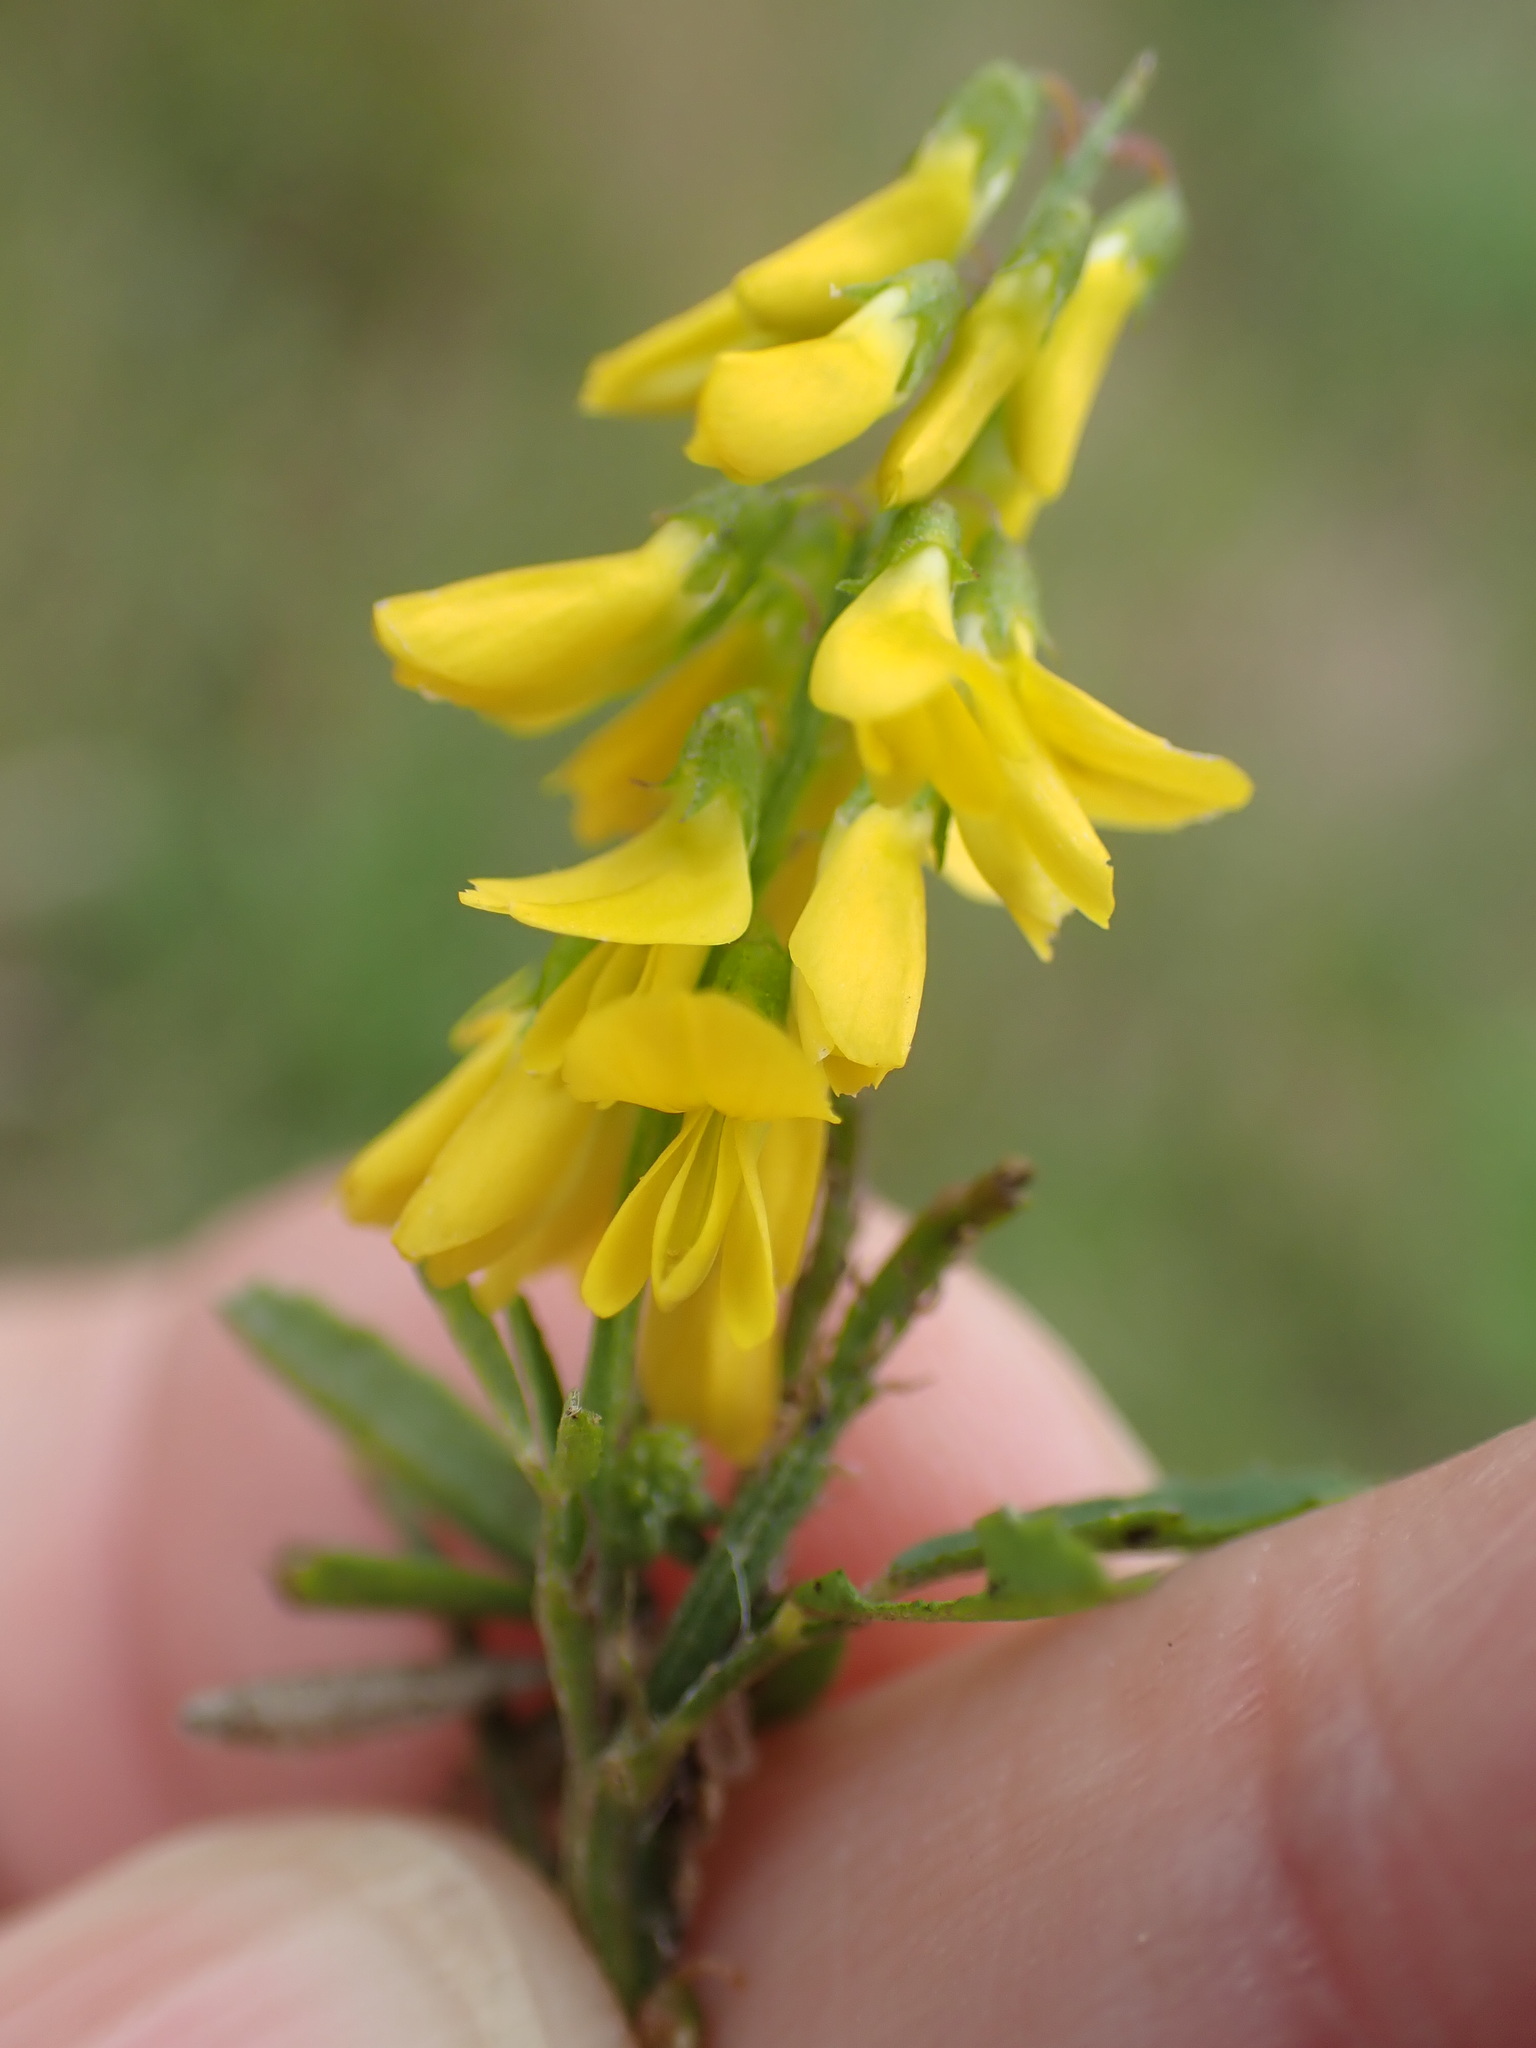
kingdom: Plantae
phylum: Tracheophyta
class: Magnoliopsida
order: Fabales
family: Fabaceae
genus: Melilotus
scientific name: Melilotus officinalis
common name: Sweetclover
